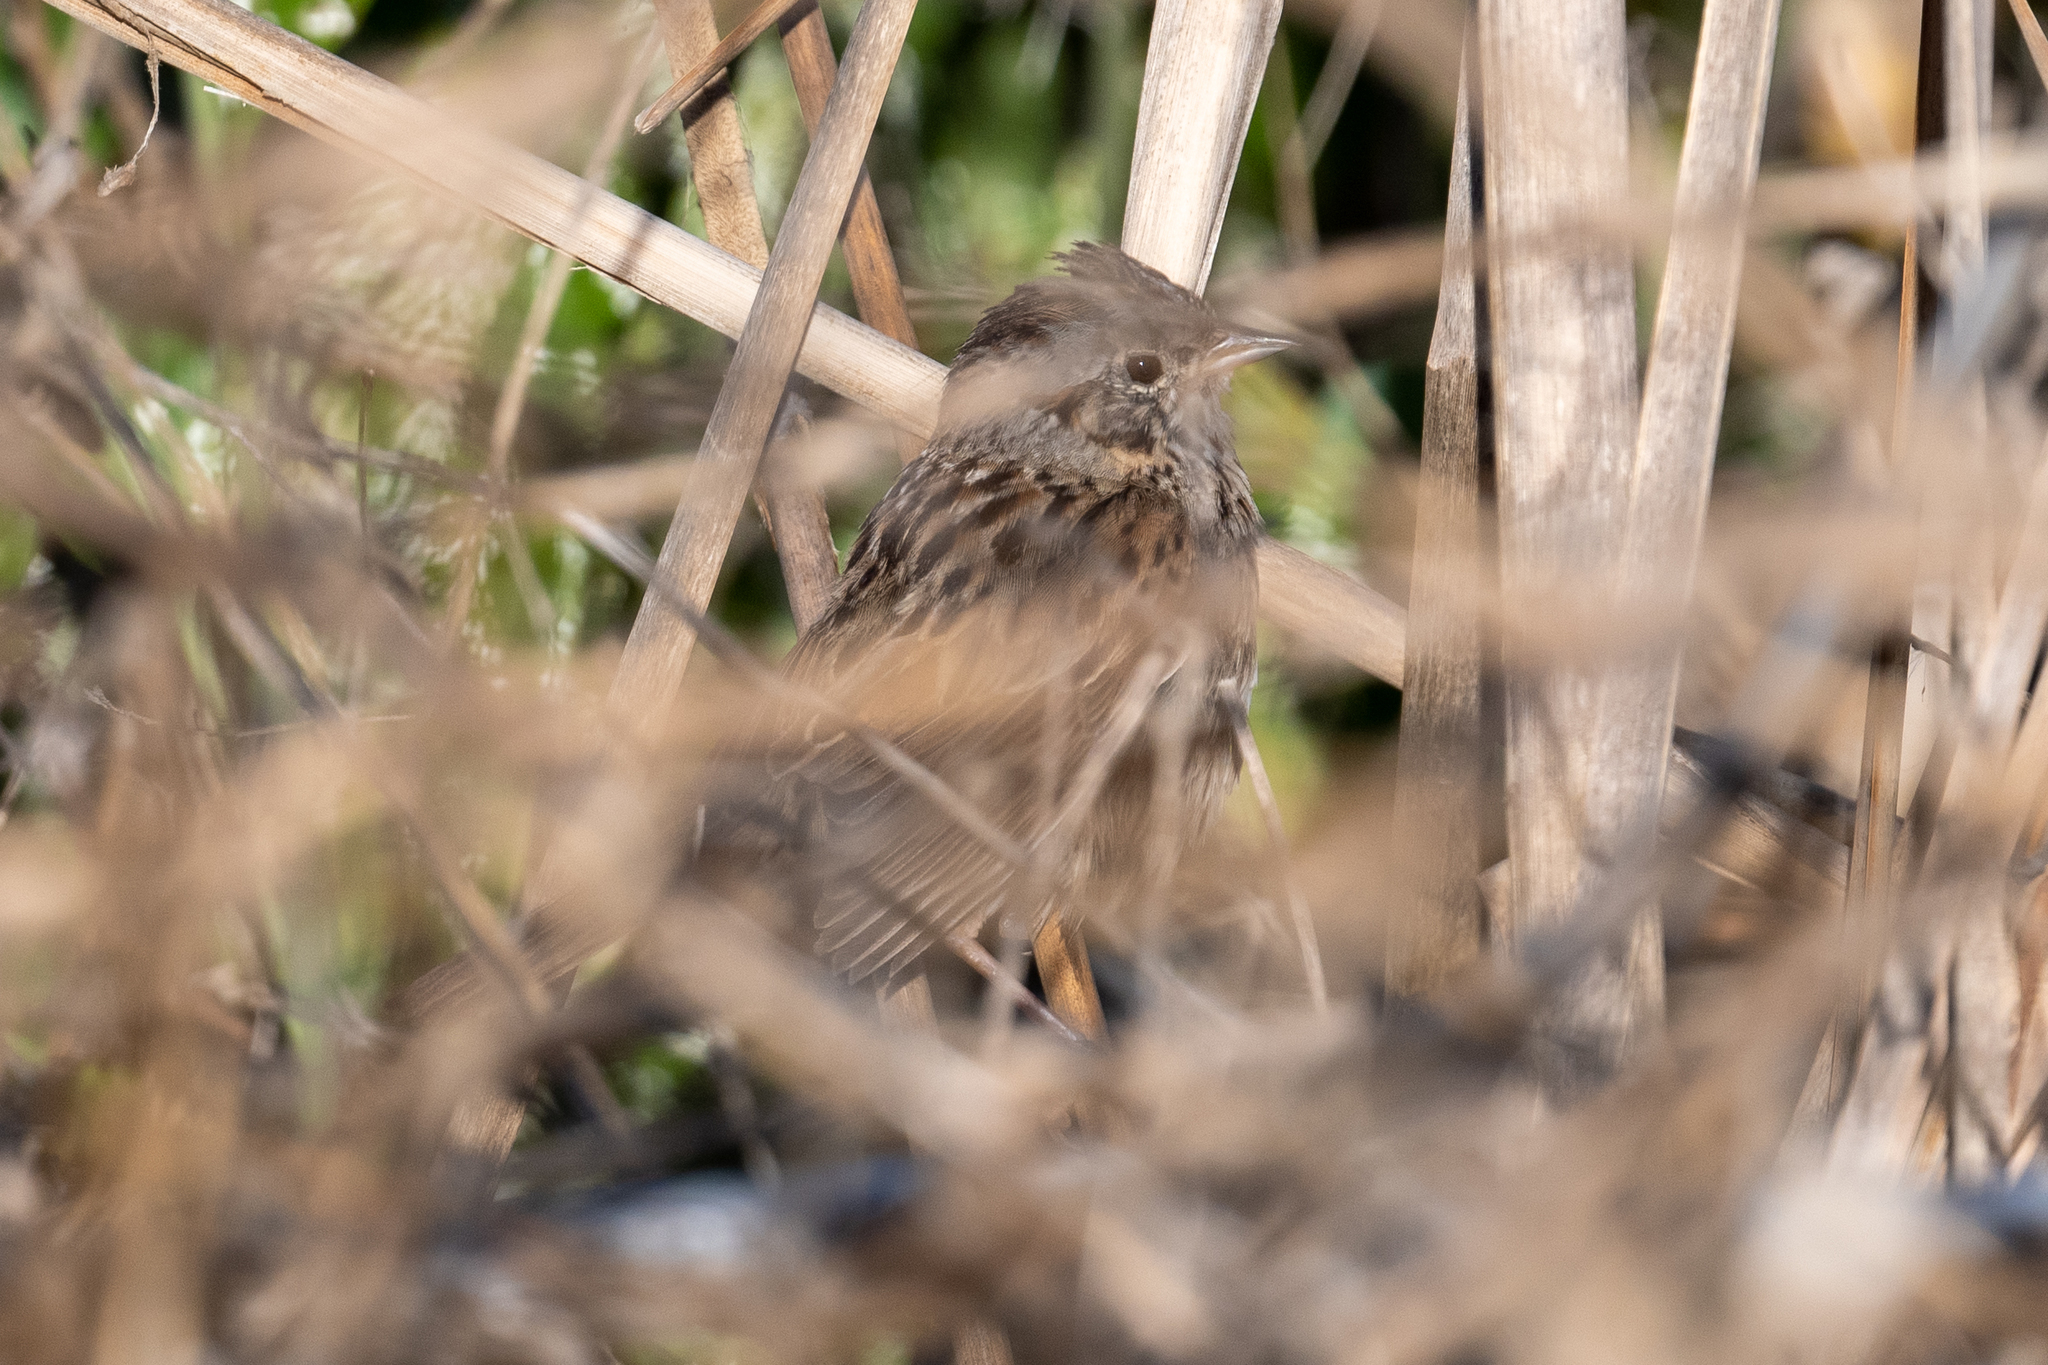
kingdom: Animalia
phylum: Chordata
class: Aves
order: Passeriformes
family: Passerellidae
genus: Melospiza
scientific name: Melospiza lincolnii
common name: Lincoln's sparrow
